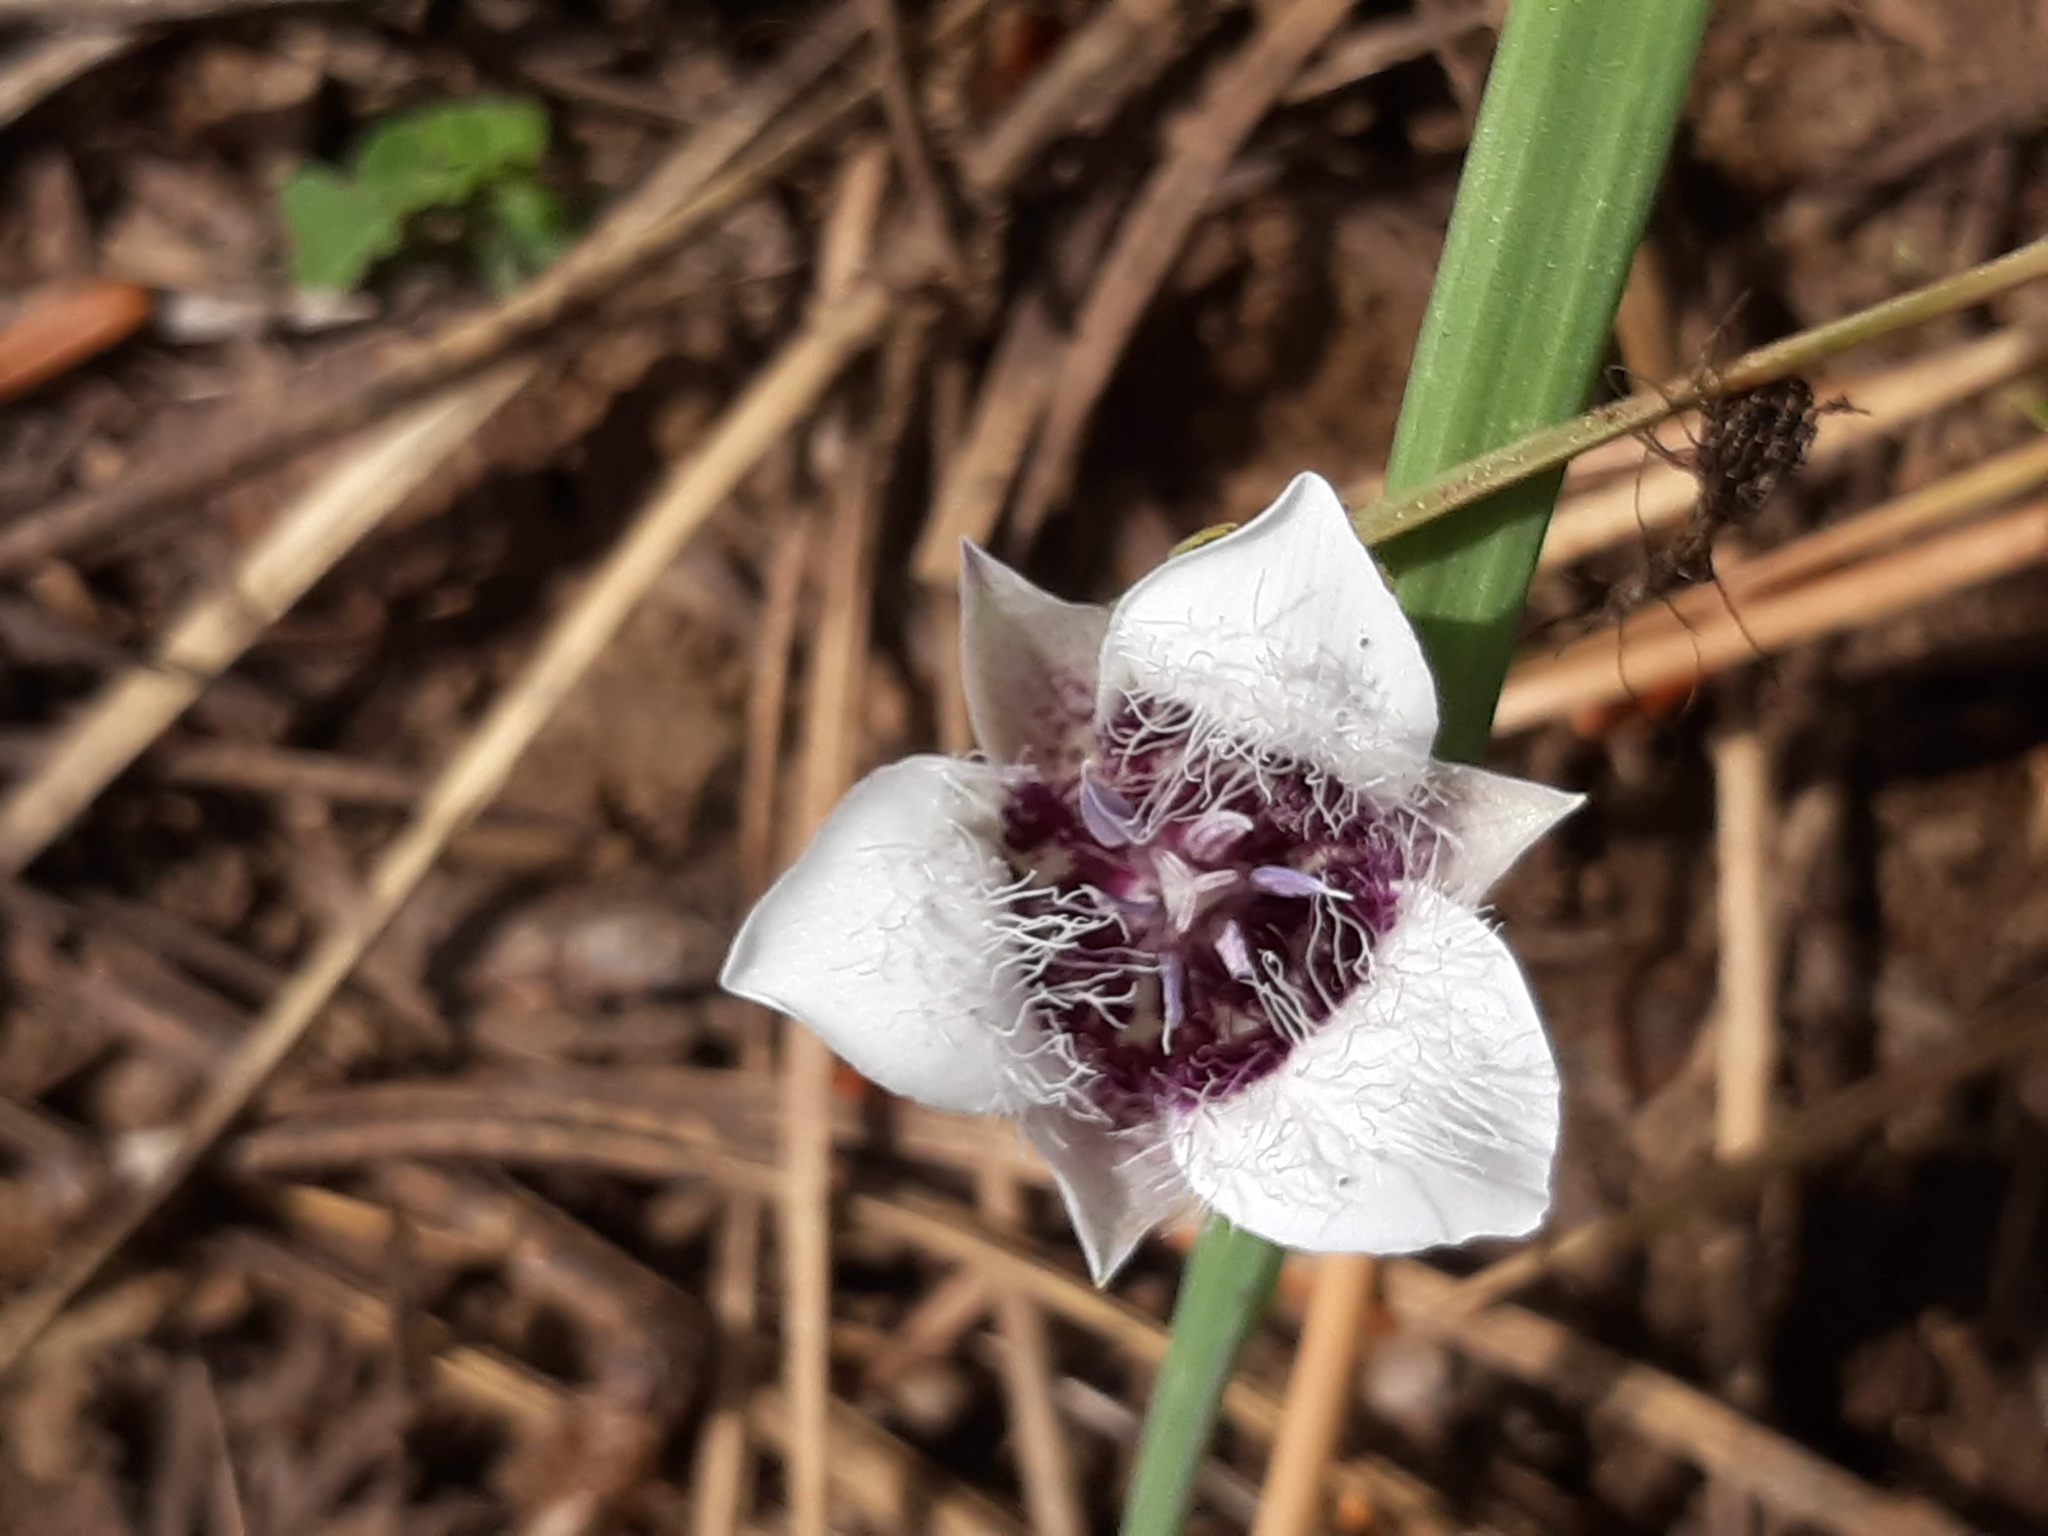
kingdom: Plantae
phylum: Tracheophyta
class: Liliopsida
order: Liliales
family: Liliaceae
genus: Calochortus
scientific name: Calochortus elegans
